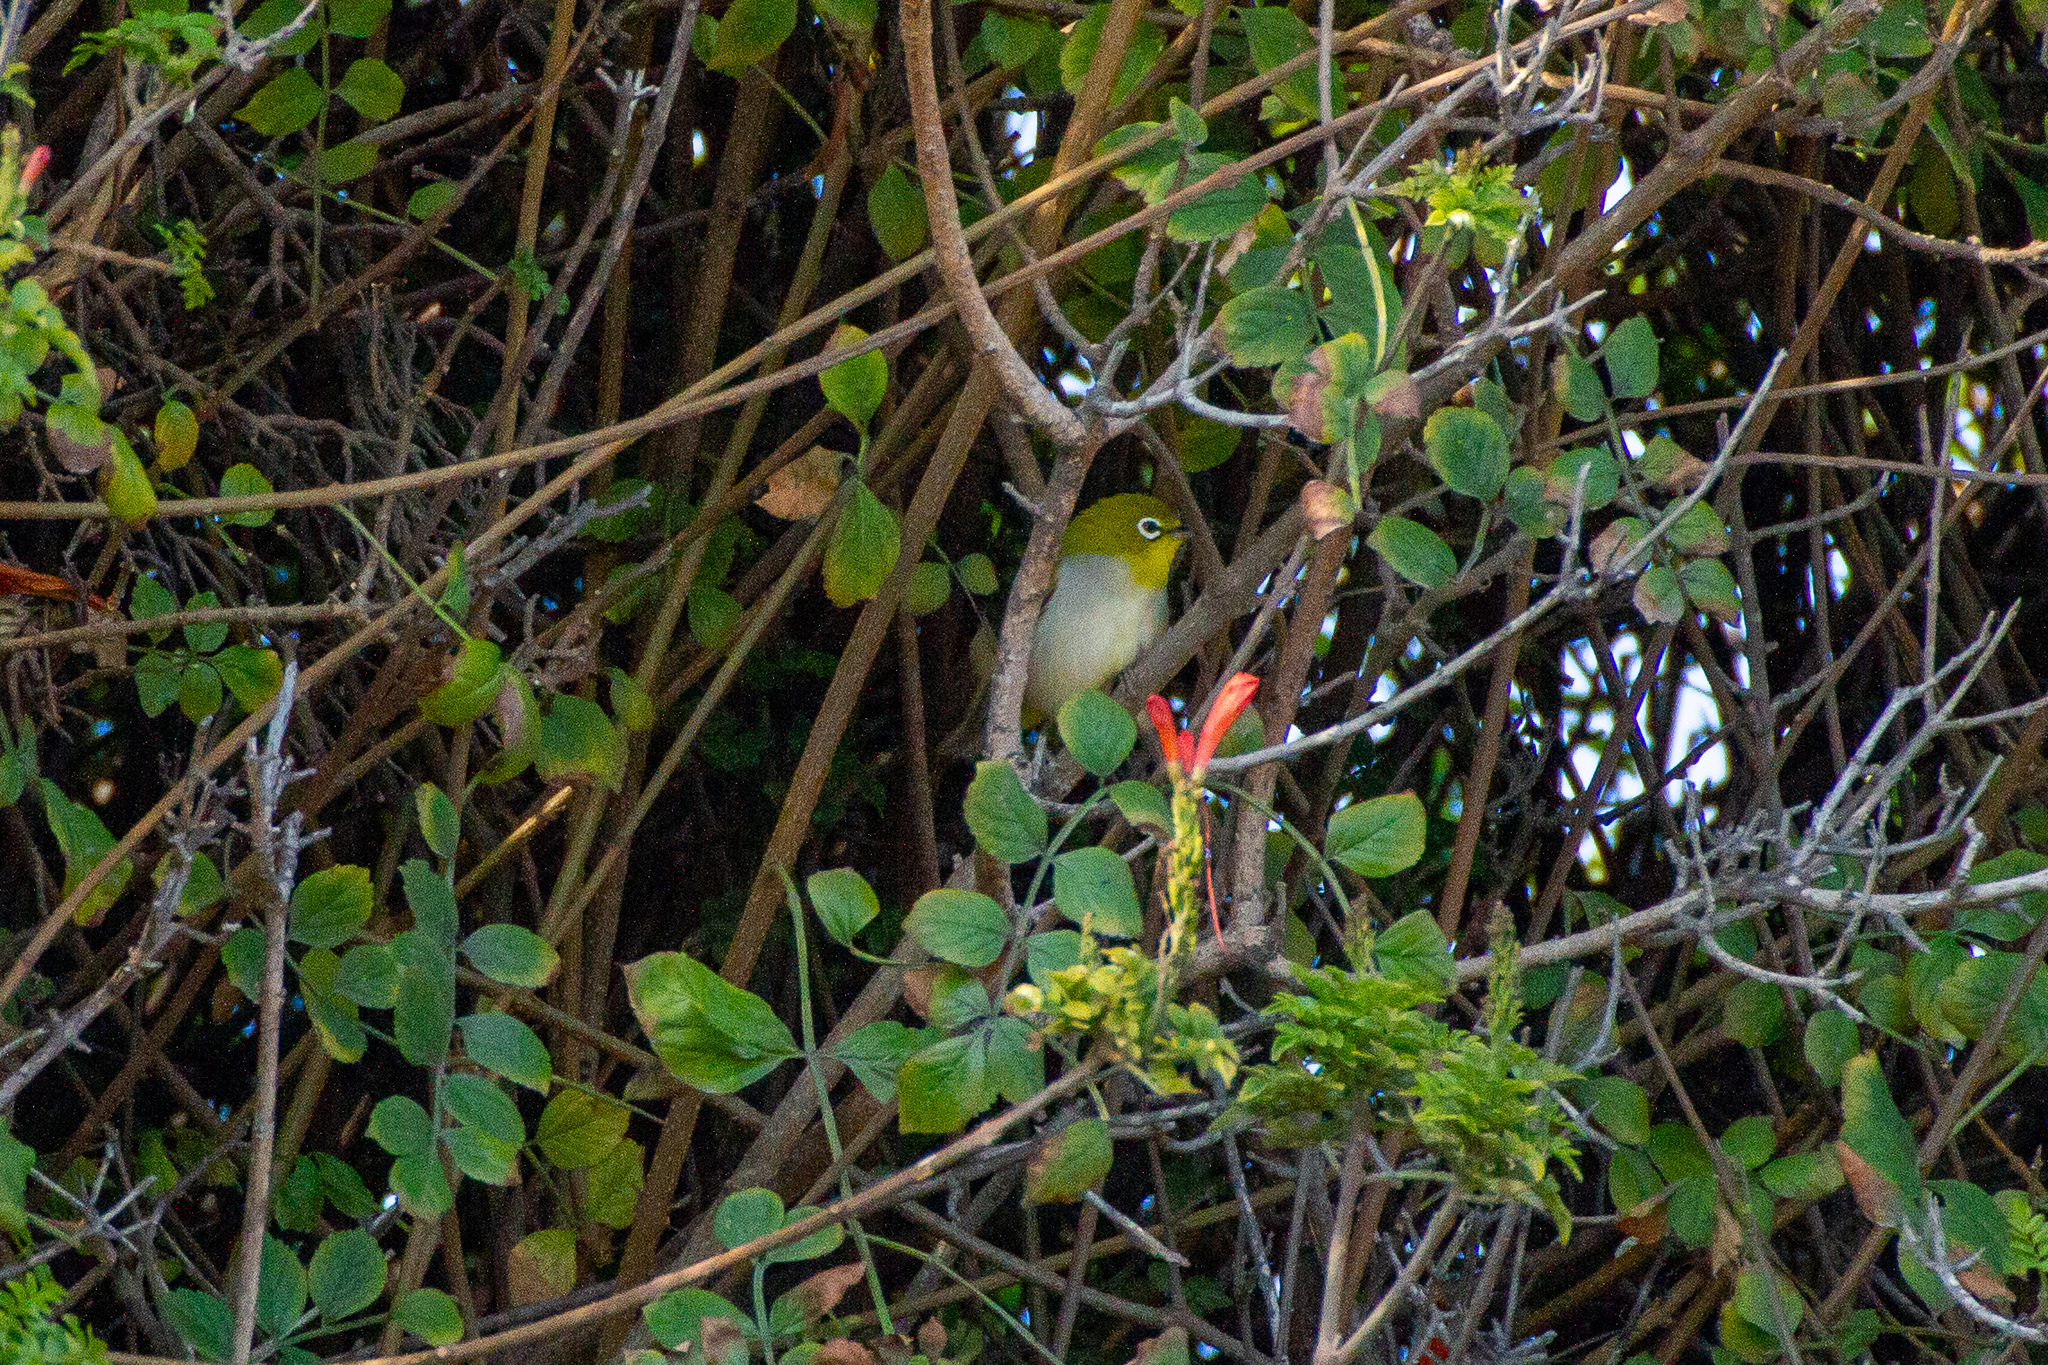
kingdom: Animalia
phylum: Chordata
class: Aves
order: Passeriformes
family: Zosteropidae
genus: Zosterops
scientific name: Zosterops simplex
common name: Swinhoe's white-eye
